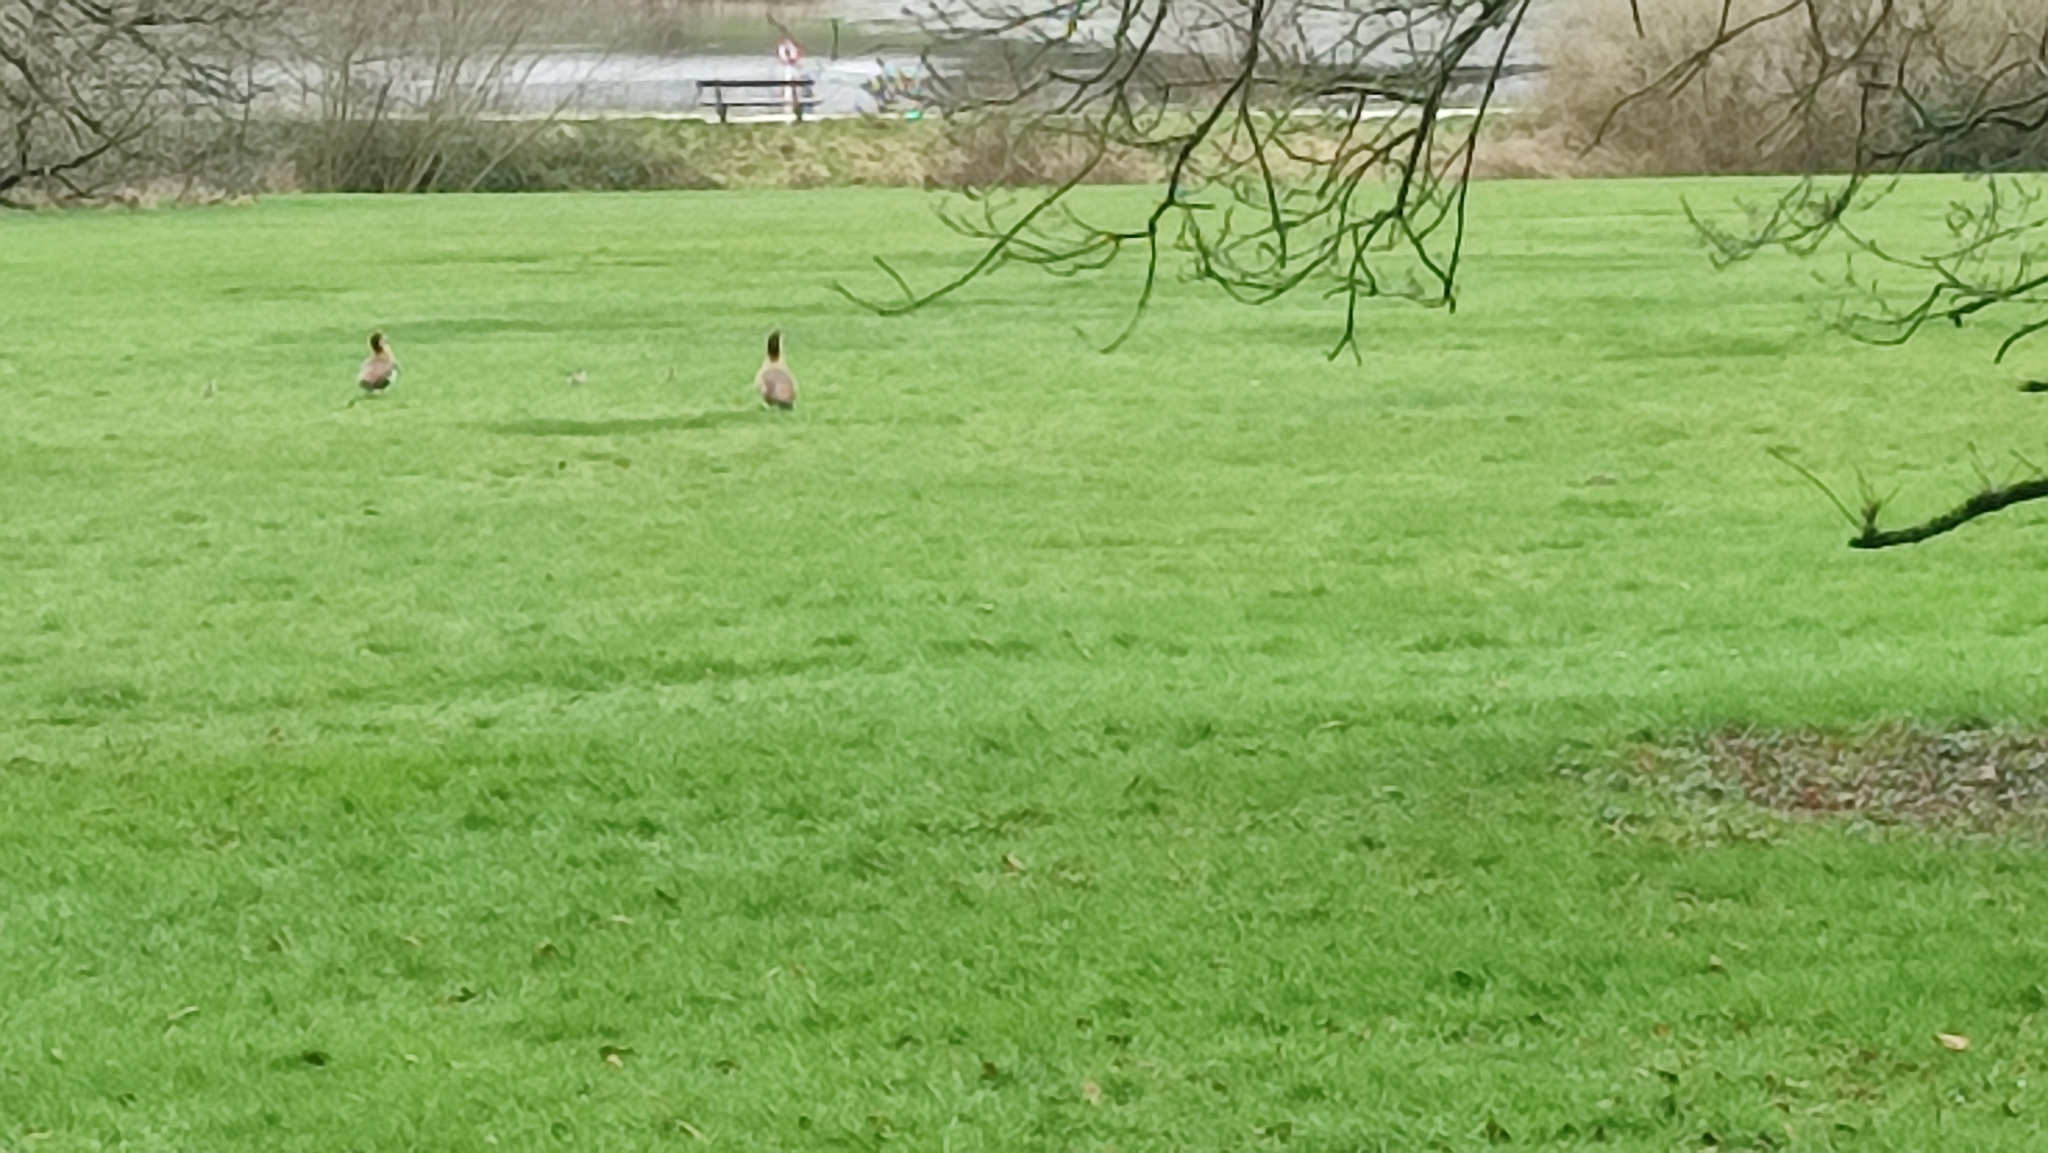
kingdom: Animalia
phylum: Chordata
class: Aves
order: Anseriformes
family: Anatidae
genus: Alopochen
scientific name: Alopochen aegyptiaca
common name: Egyptian goose
